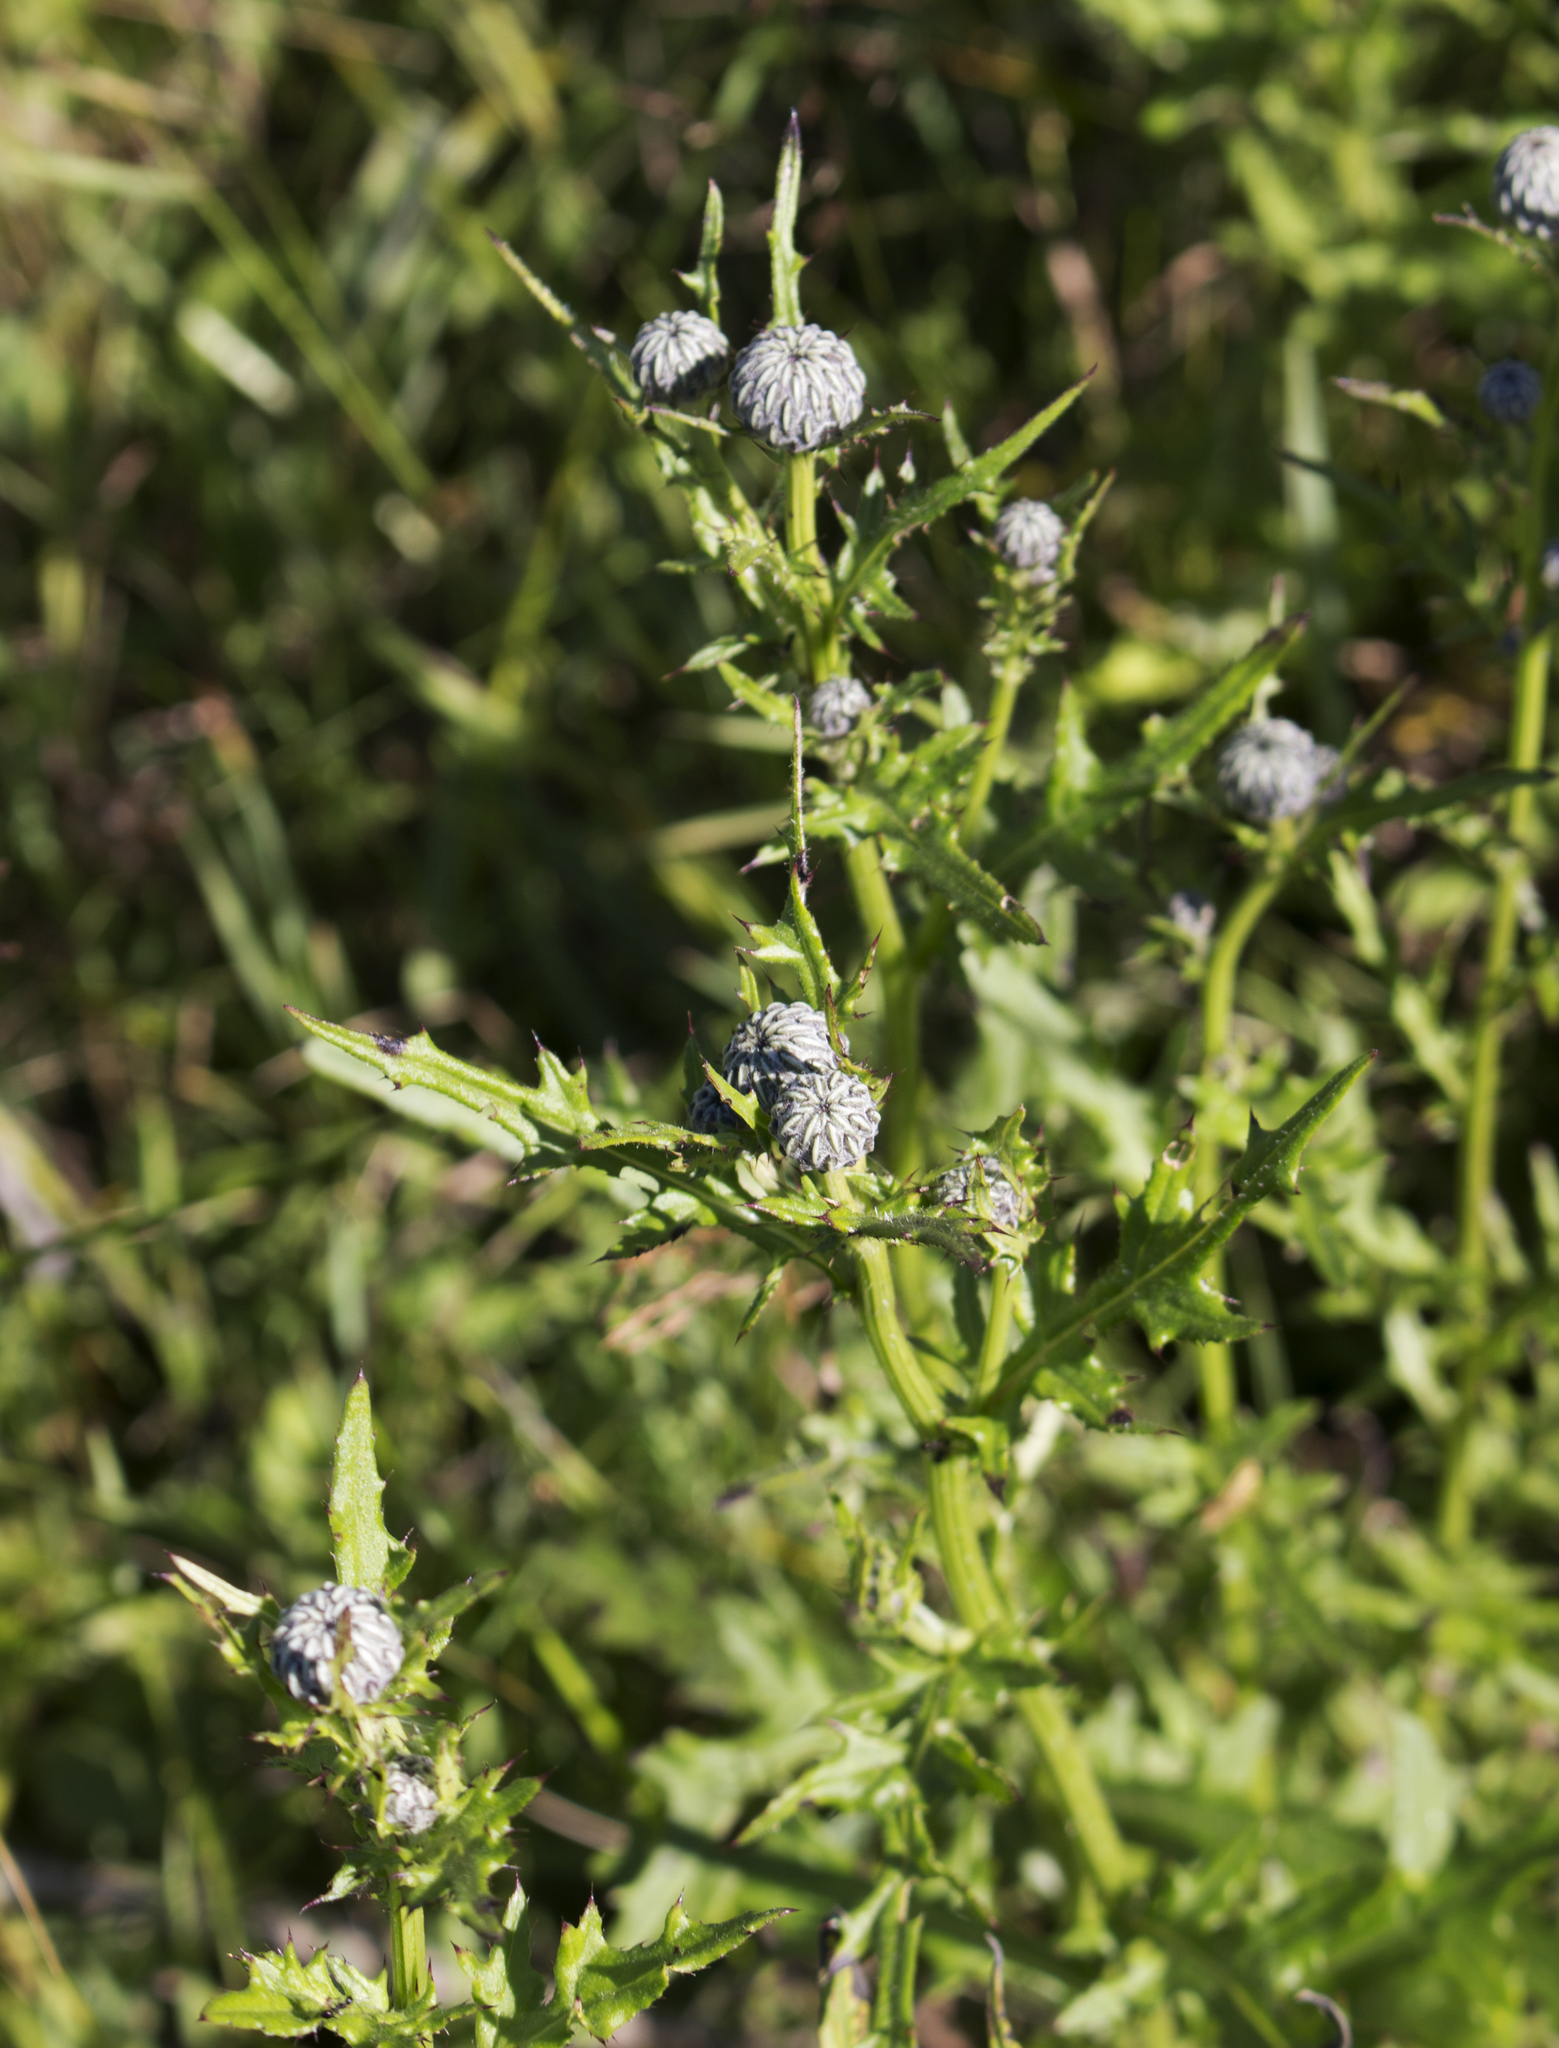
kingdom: Plantae
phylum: Tracheophyta
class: Magnoliopsida
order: Asterales
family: Asteraceae
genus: Cirsium
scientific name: Cirsium muticum
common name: Dunce-nettle
